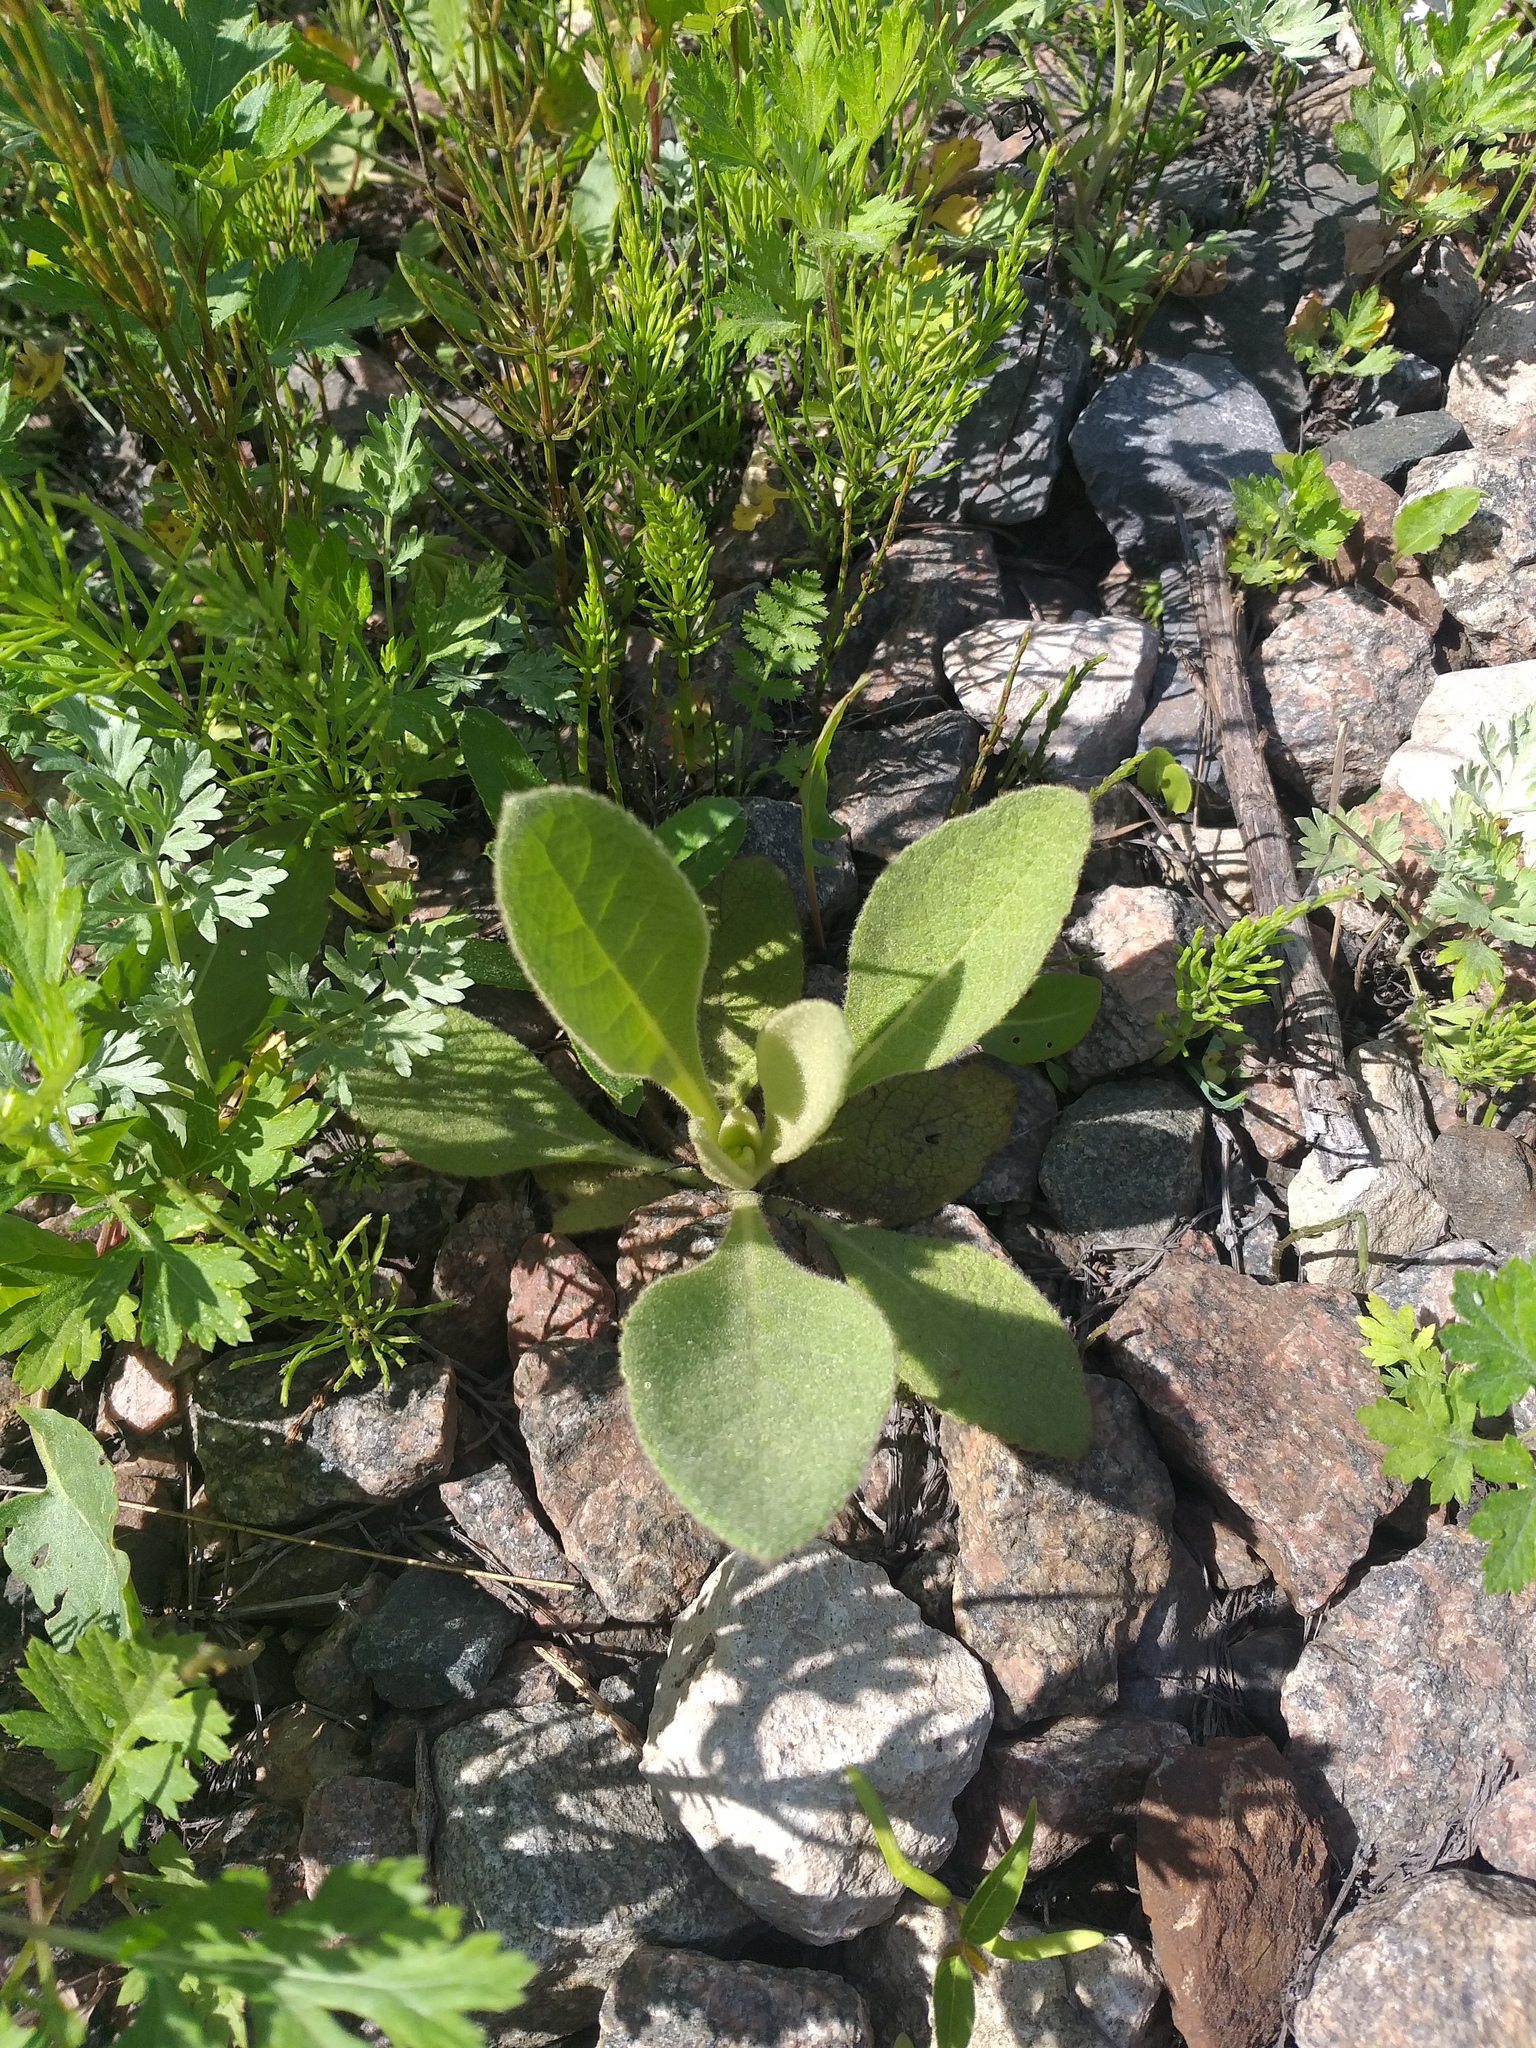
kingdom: Plantae
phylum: Tracheophyta
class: Magnoliopsida
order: Lamiales
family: Scrophulariaceae
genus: Verbascum
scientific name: Verbascum thapsus
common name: Common mullein
